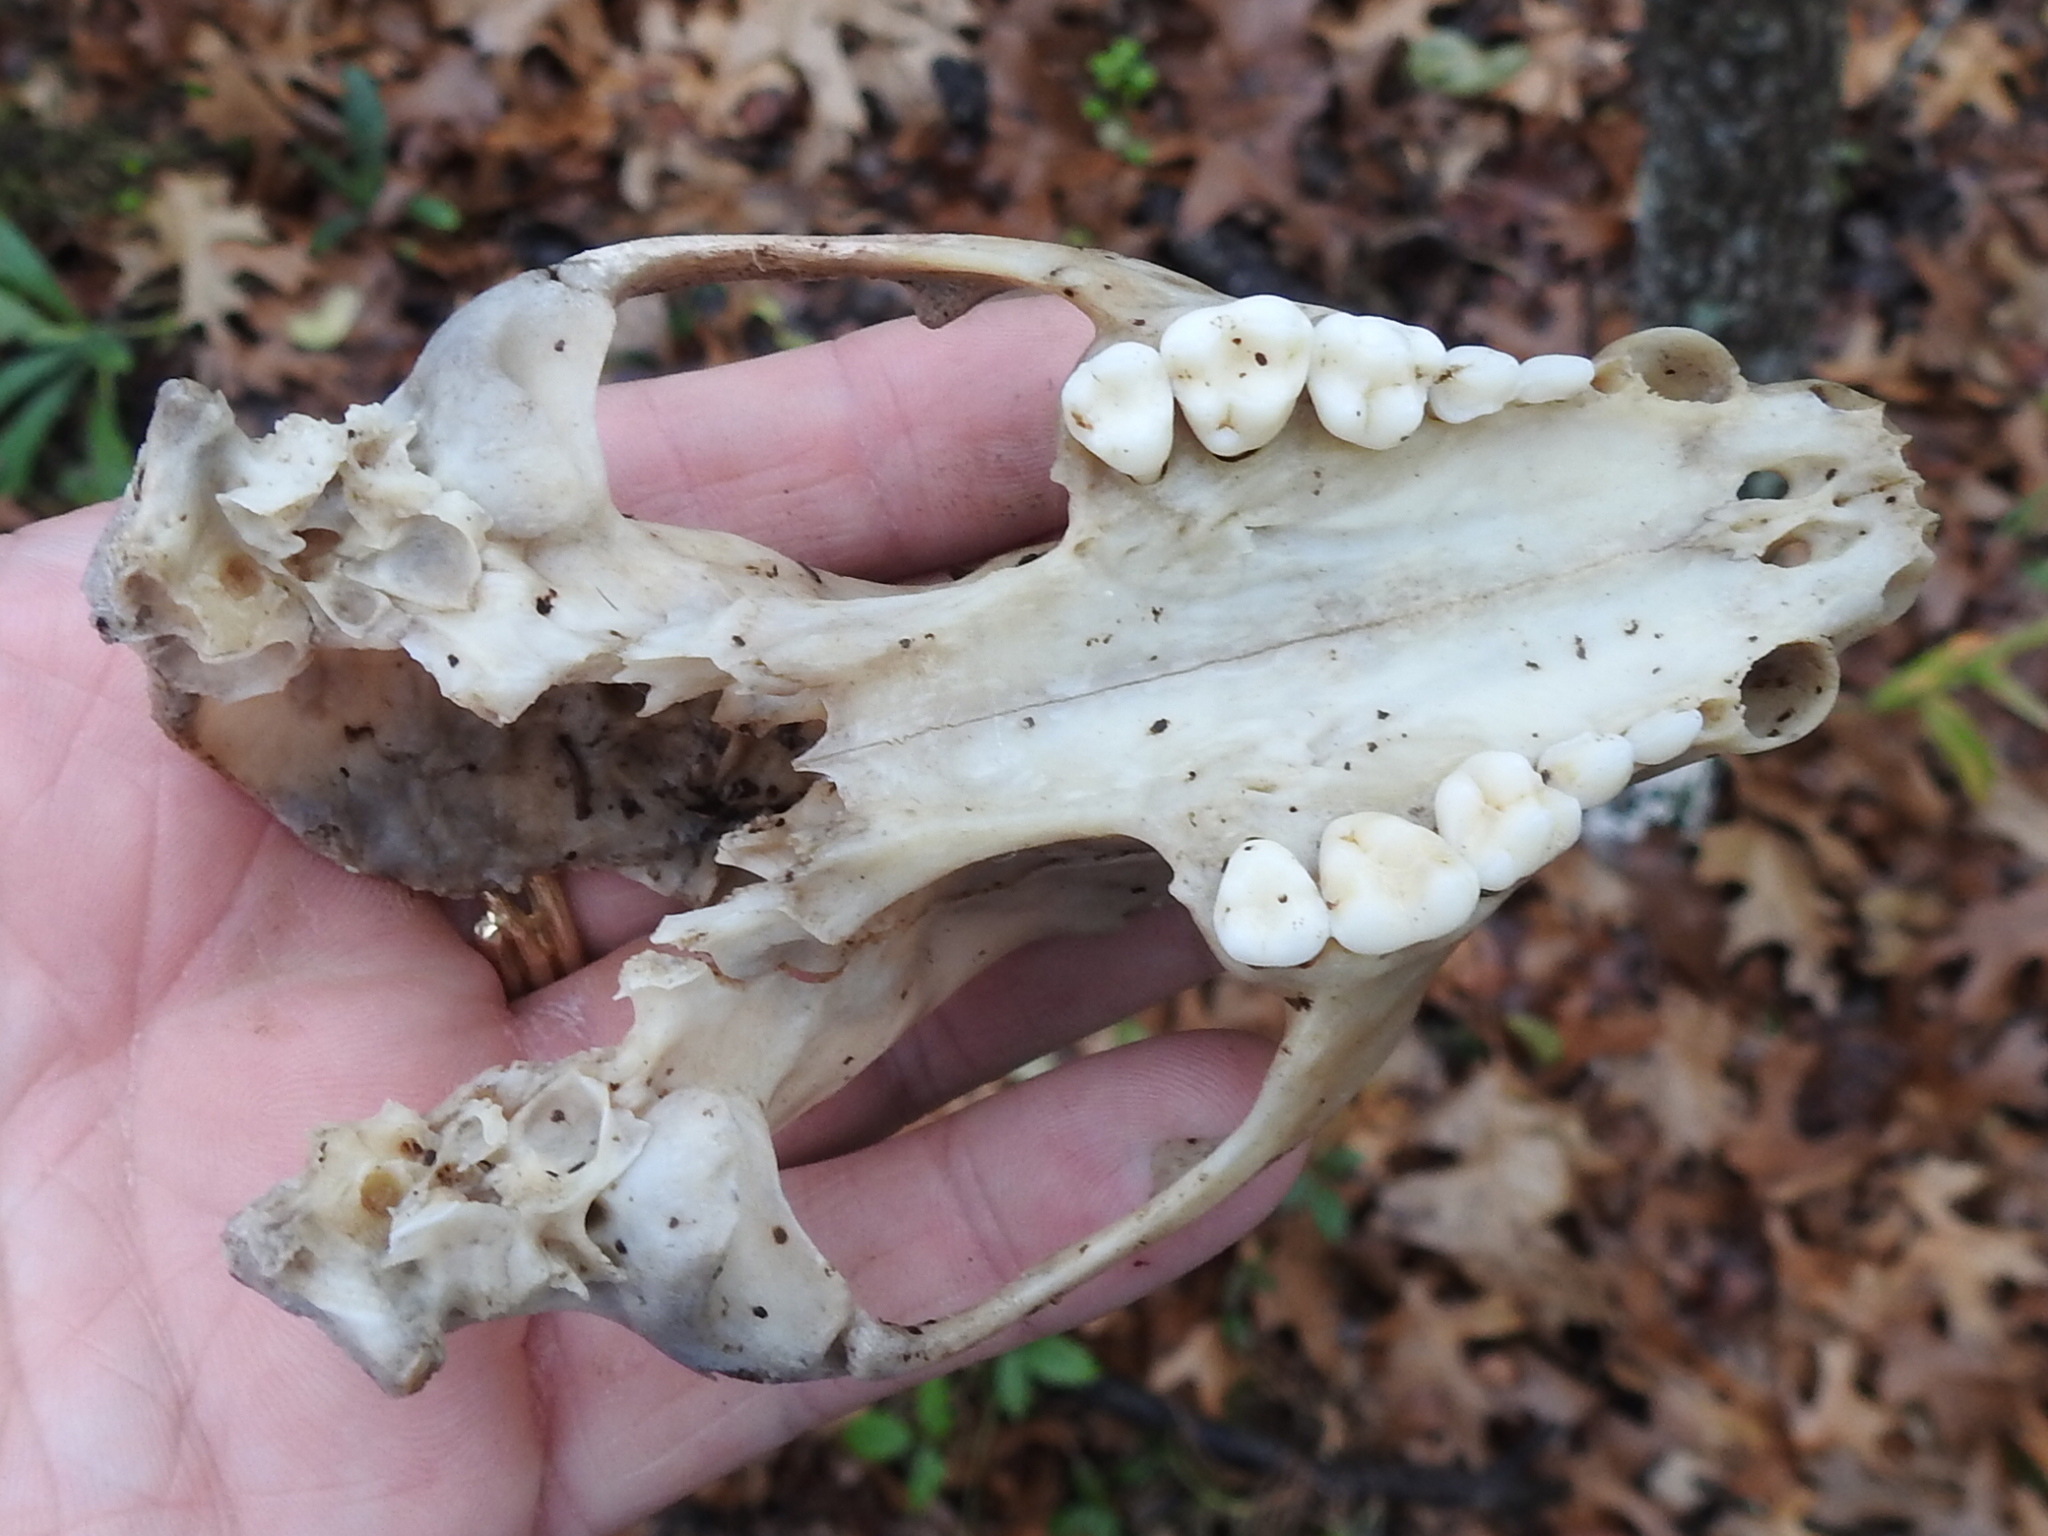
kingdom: Animalia
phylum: Chordata
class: Mammalia
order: Carnivora
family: Procyonidae
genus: Procyon
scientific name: Procyon lotor
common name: Raccoon
